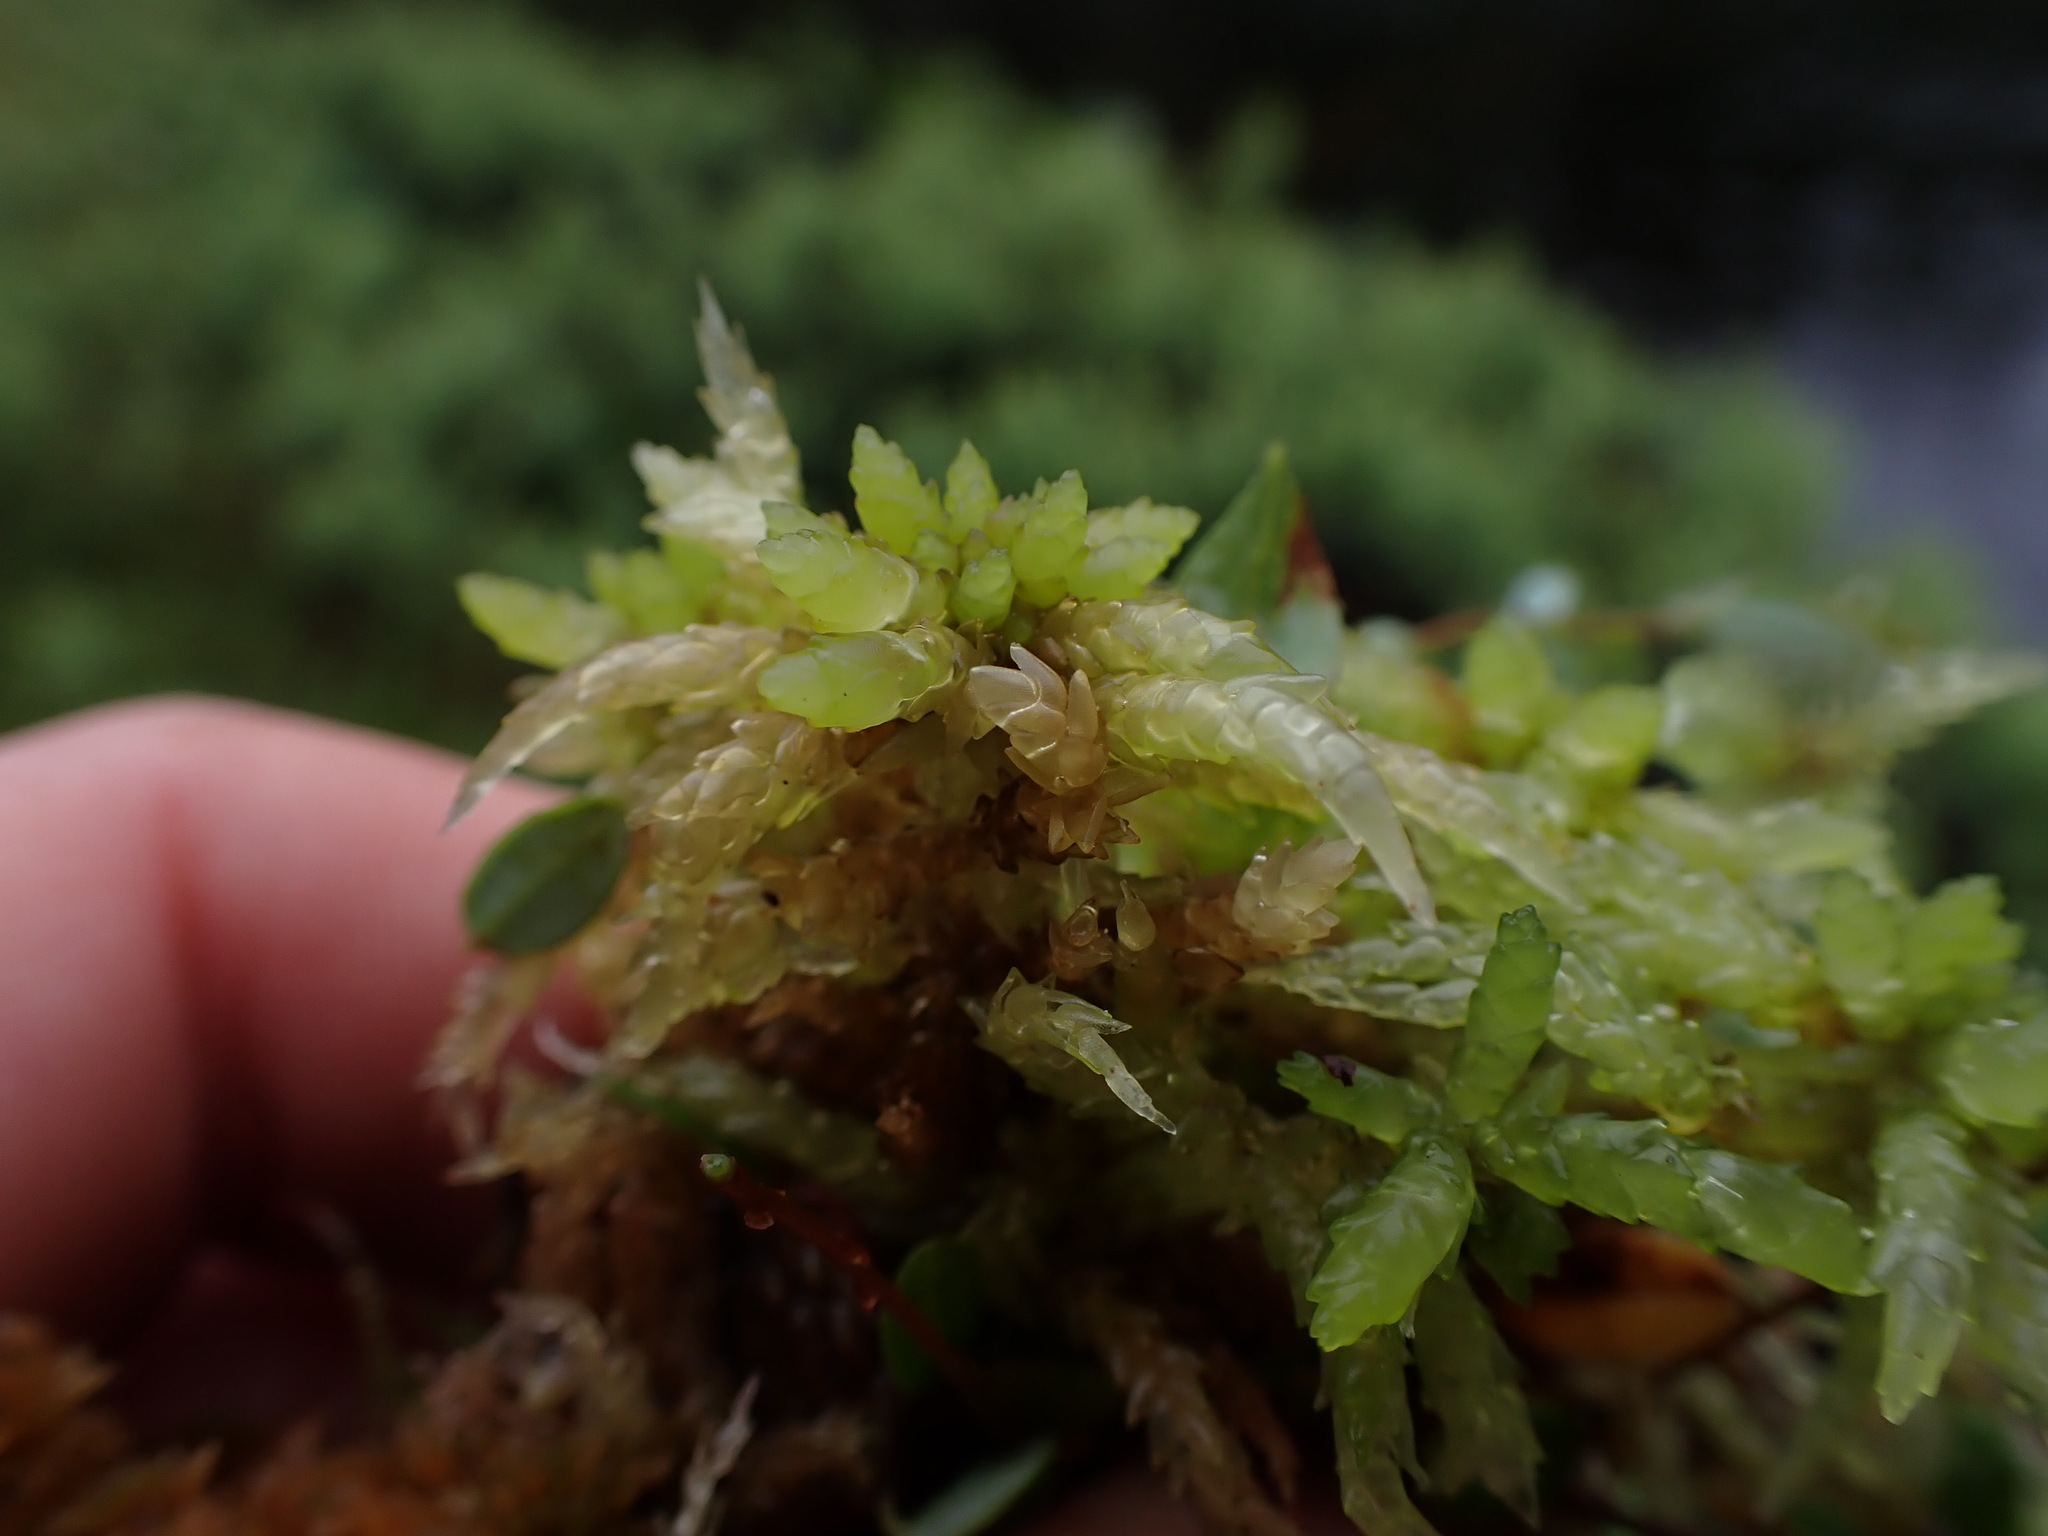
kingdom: Plantae
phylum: Bryophyta
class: Sphagnopsida
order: Sphagnales
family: Sphagnaceae
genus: Sphagnum
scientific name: Sphagnum papillosum
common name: Papillose peat moss
